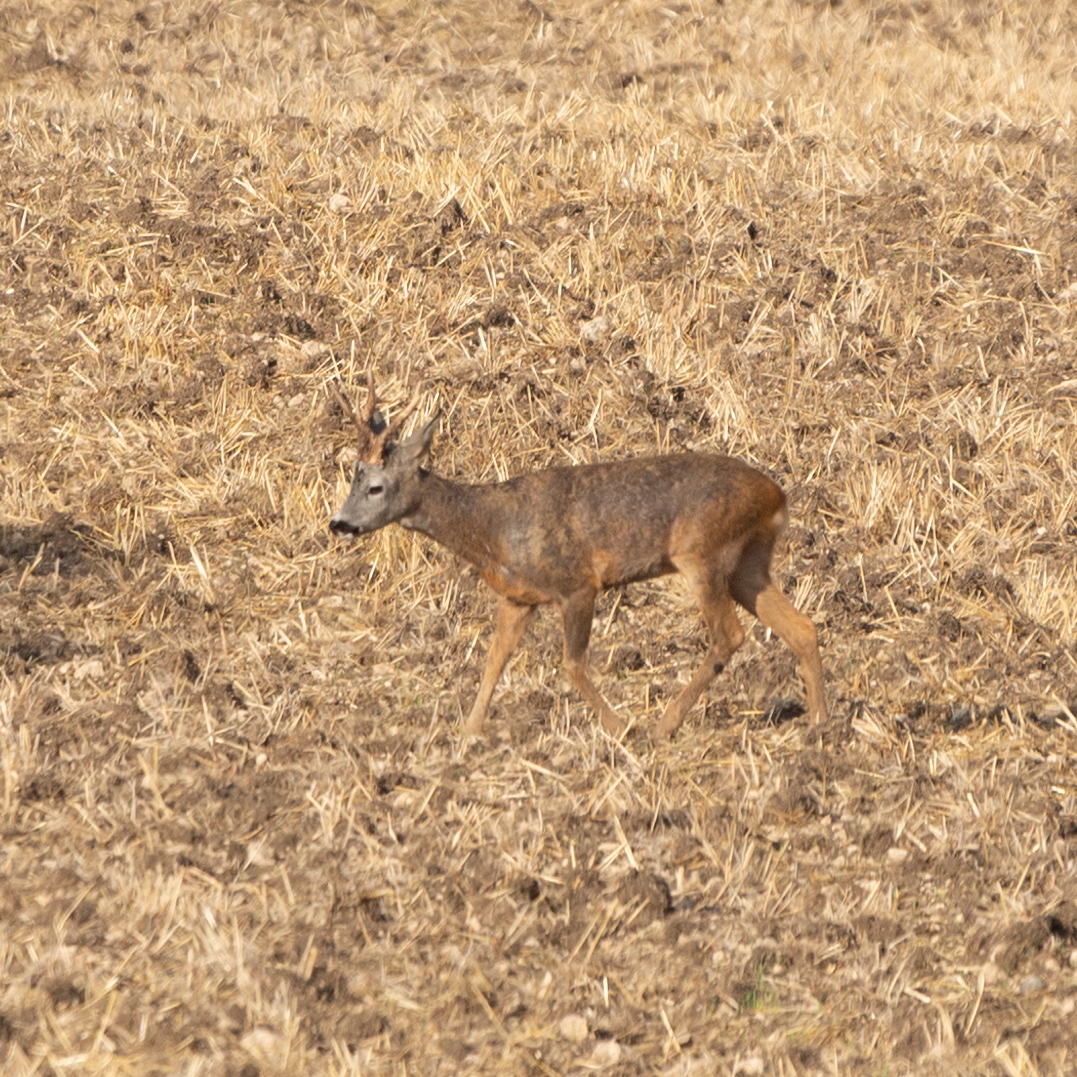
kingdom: Animalia
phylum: Chordata
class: Mammalia
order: Artiodactyla
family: Cervidae
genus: Capreolus
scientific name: Capreolus capreolus
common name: Western roe deer
